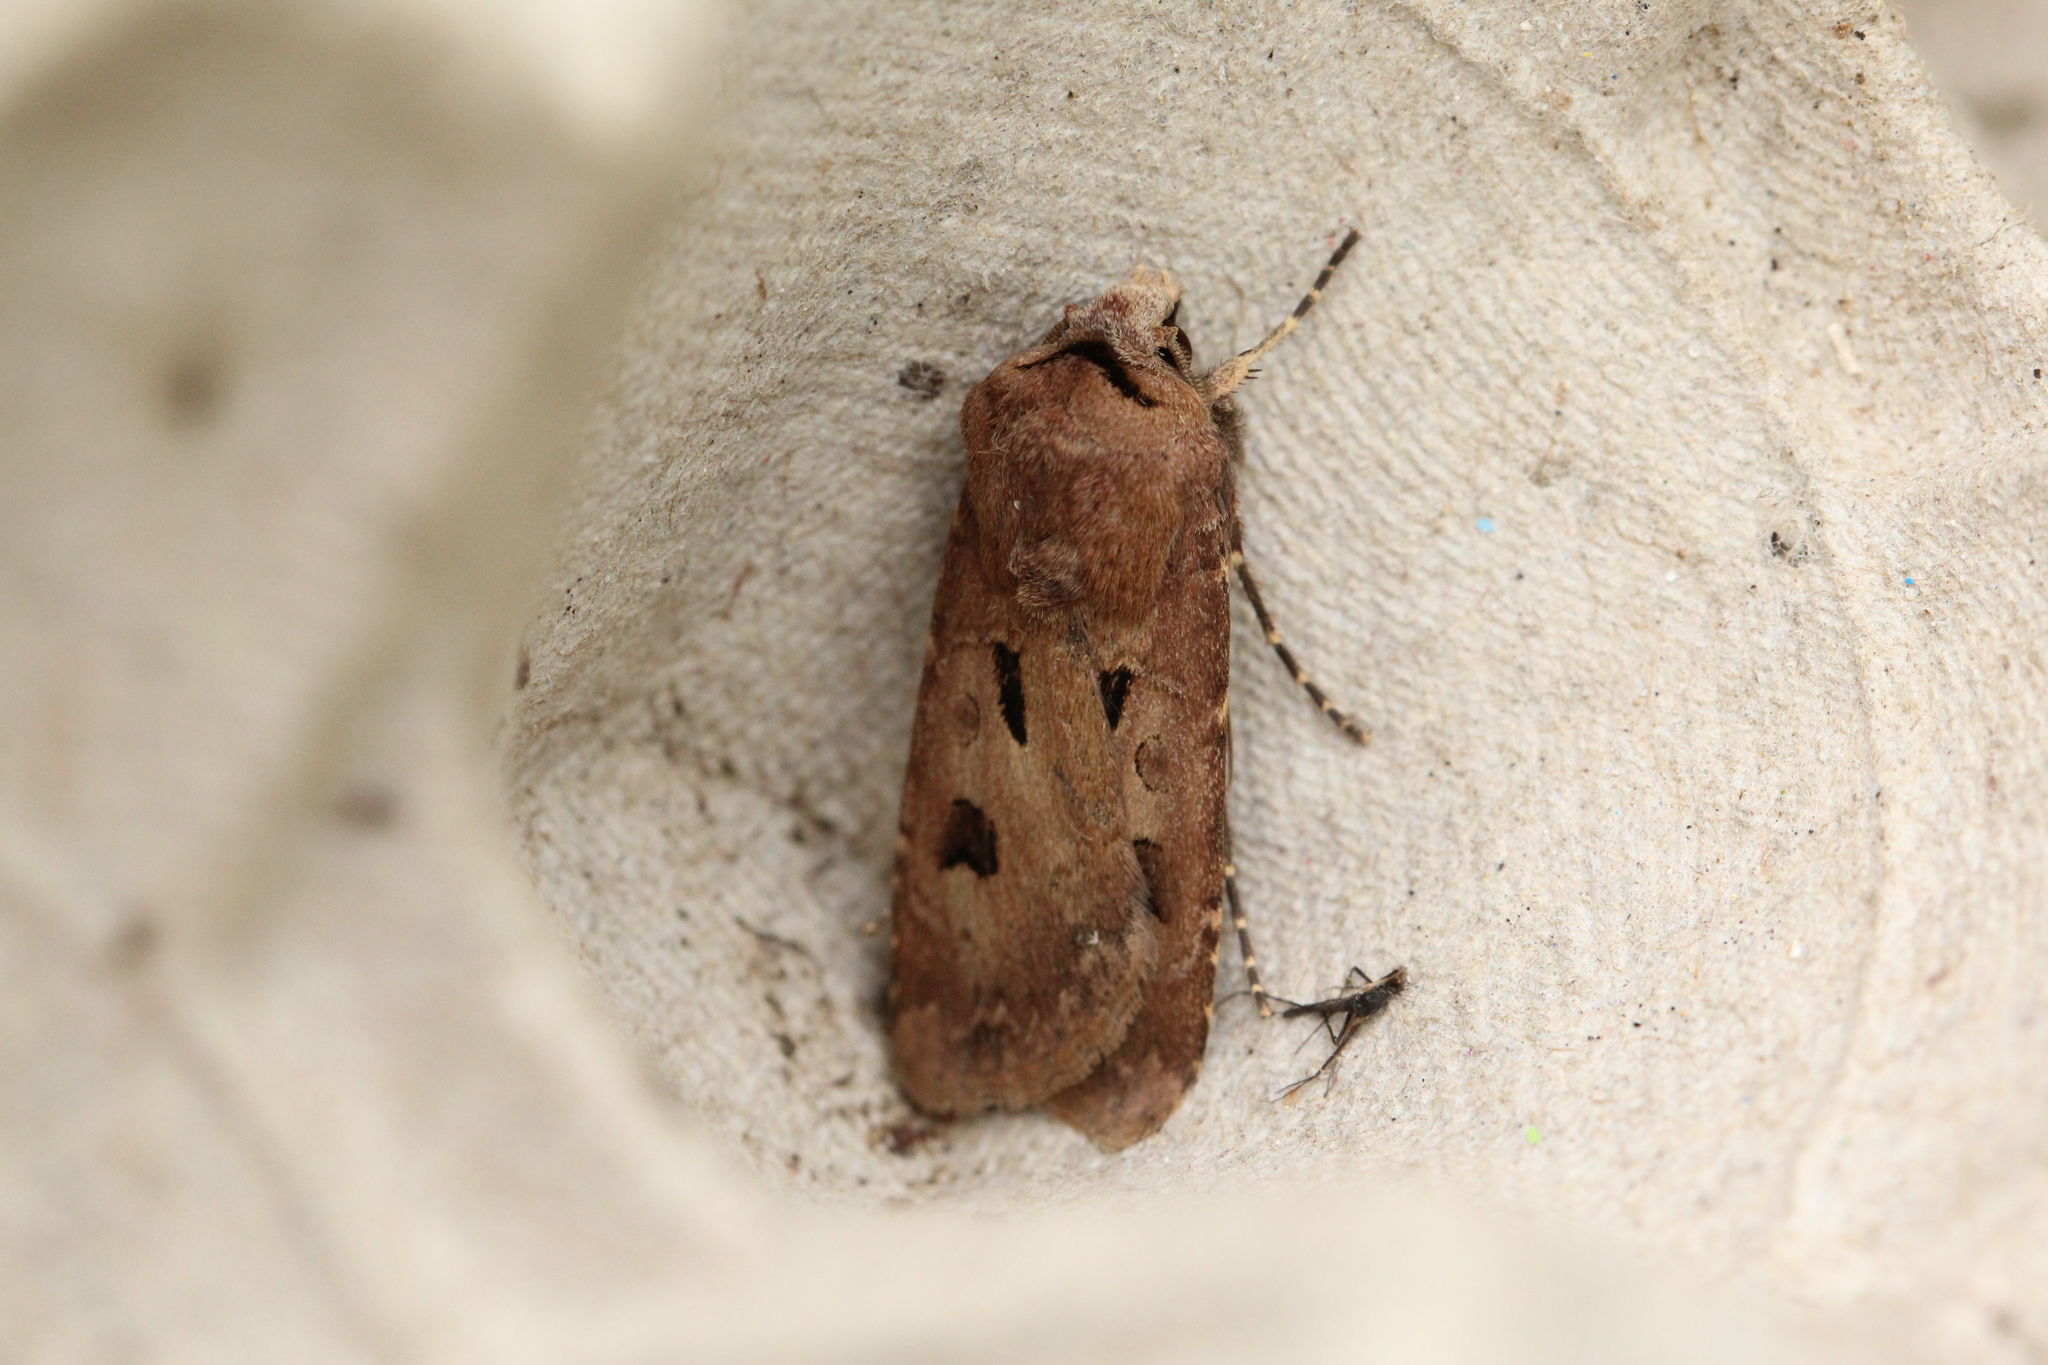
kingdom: Animalia
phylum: Arthropoda
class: Insecta
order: Lepidoptera
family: Noctuidae
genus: Agrotis
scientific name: Agrotis exclamationis
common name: Heart and dart
